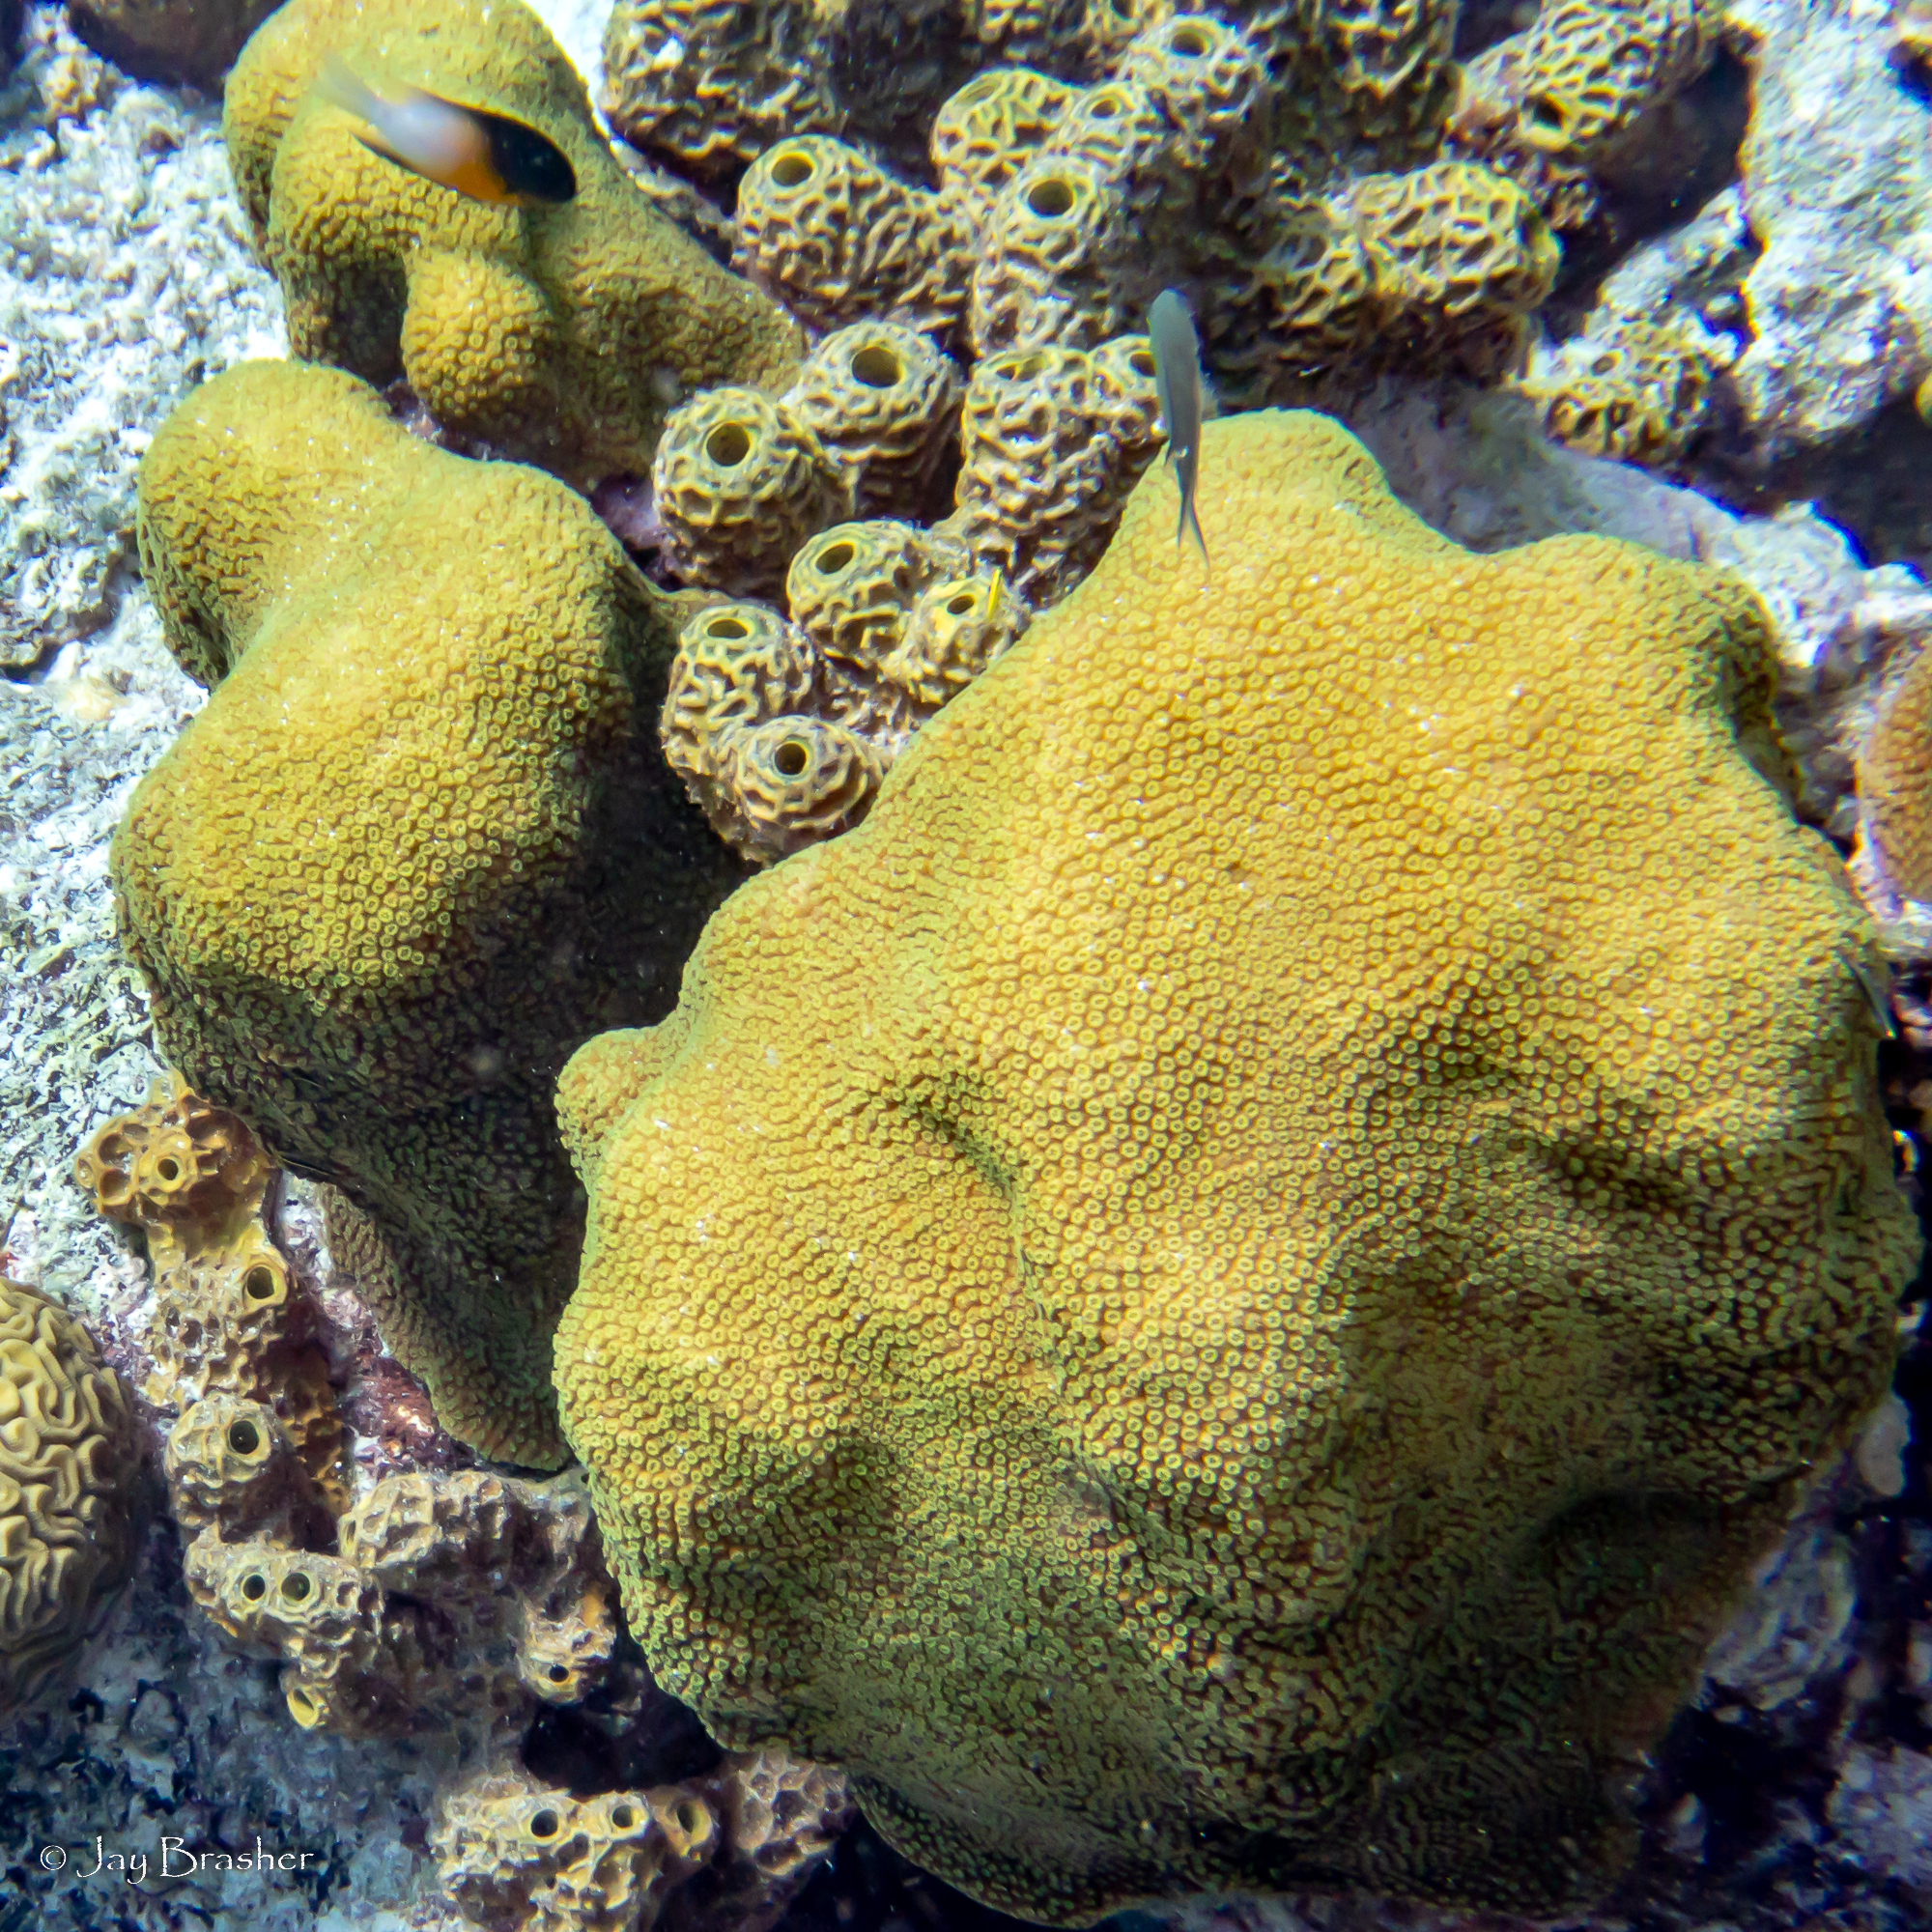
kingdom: Animalia
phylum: Porifera
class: Demospongiae
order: Verongiida
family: Aplysinidae
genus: Verongula
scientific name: Verongula rigida
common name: Pitted sponge
